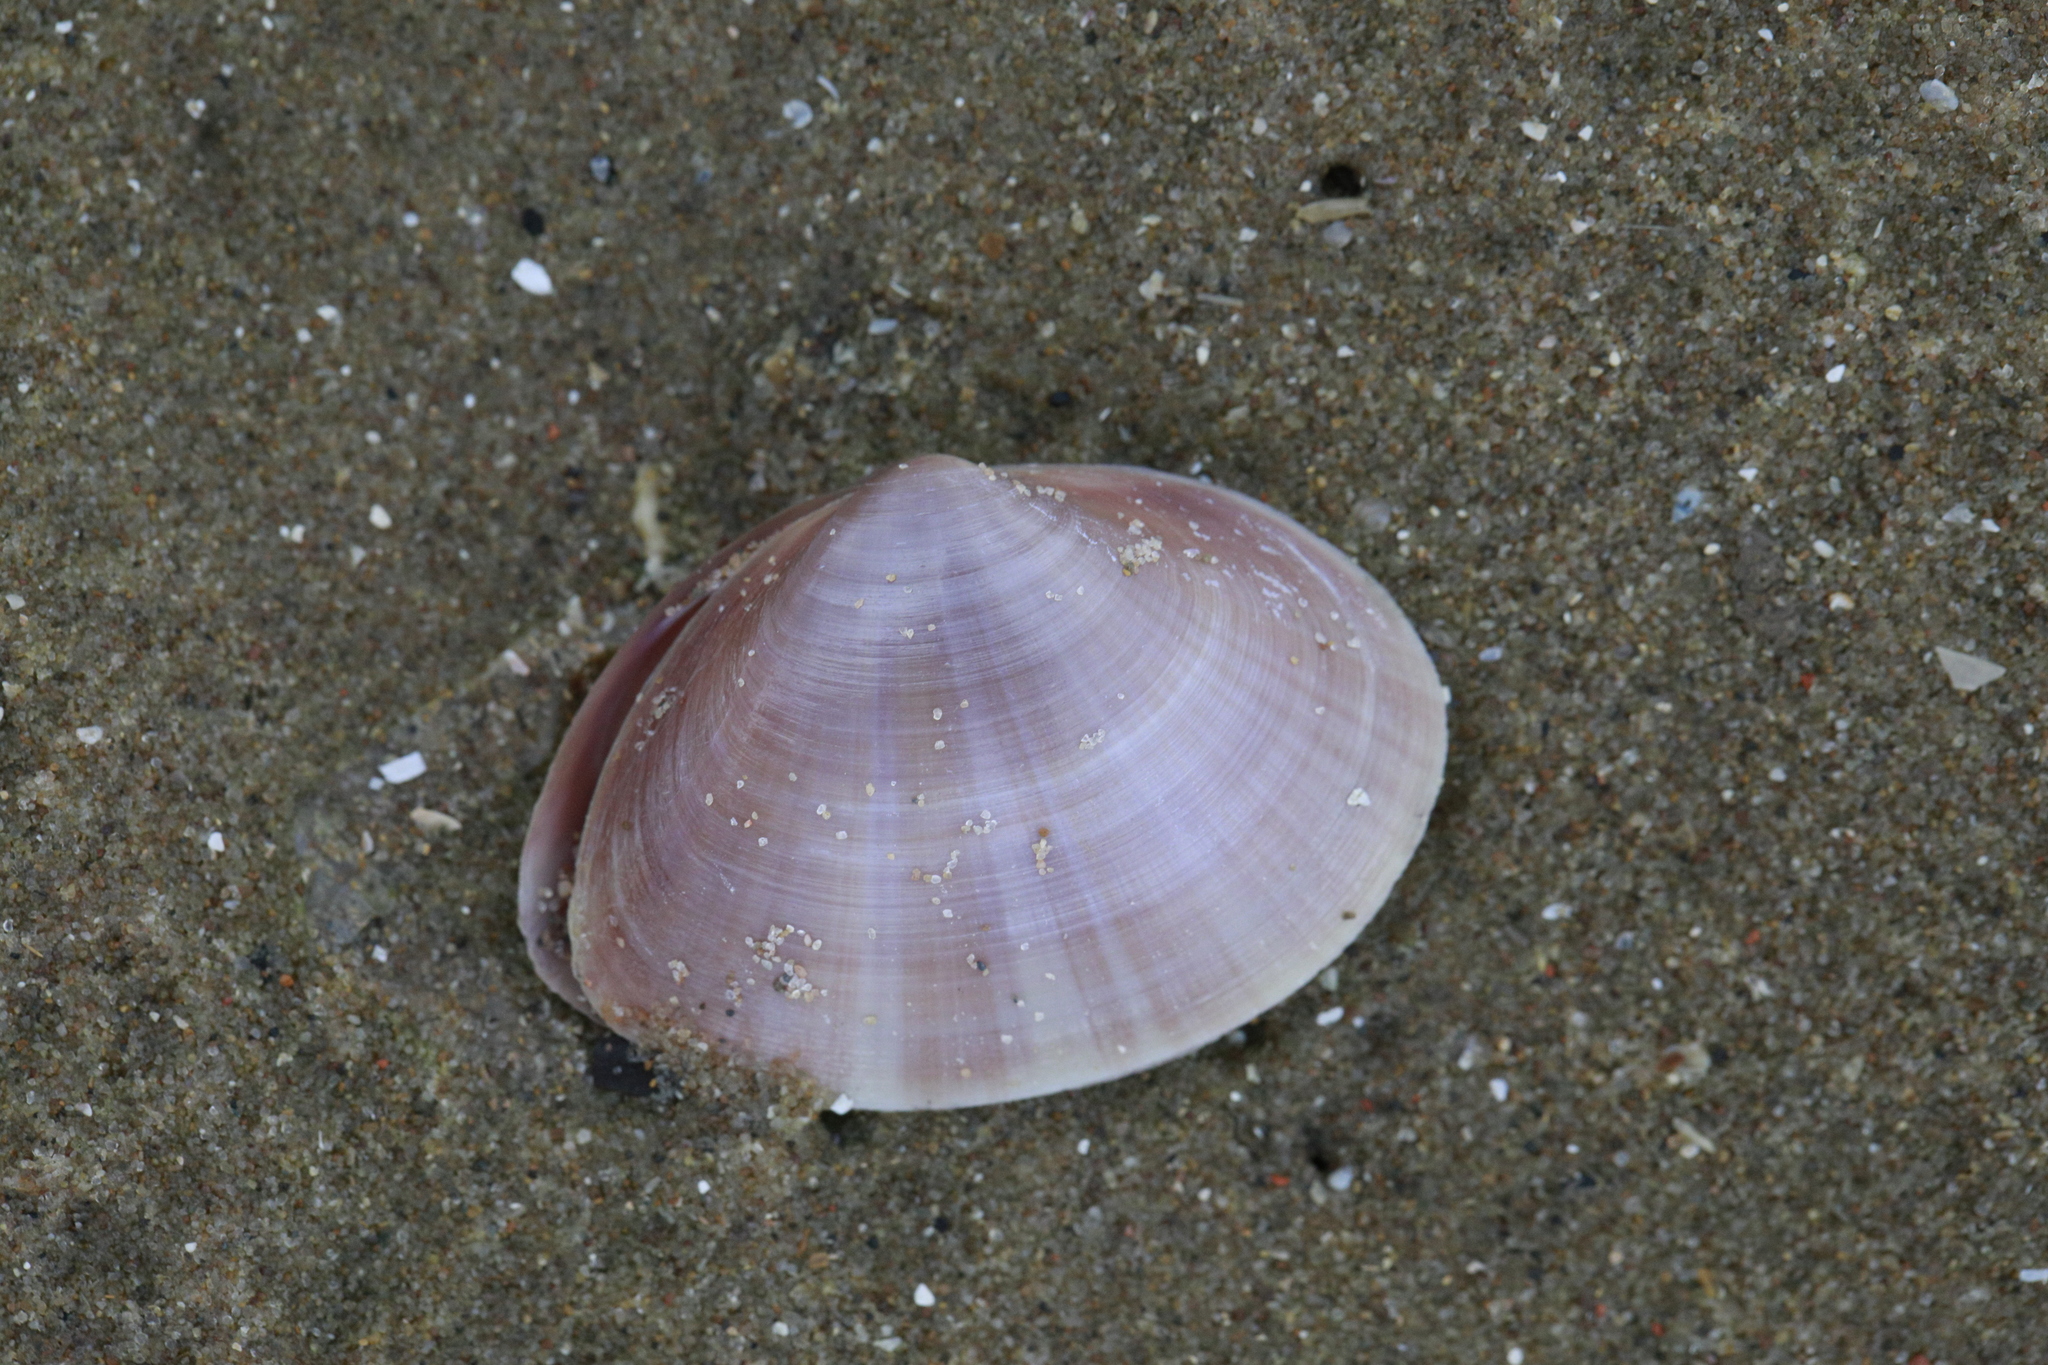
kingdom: Animalia
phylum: Mollusca
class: Bivalvia
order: Venerida
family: Mactridae
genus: Mactra
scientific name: Mactra stultorum
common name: Rayed trough shell
